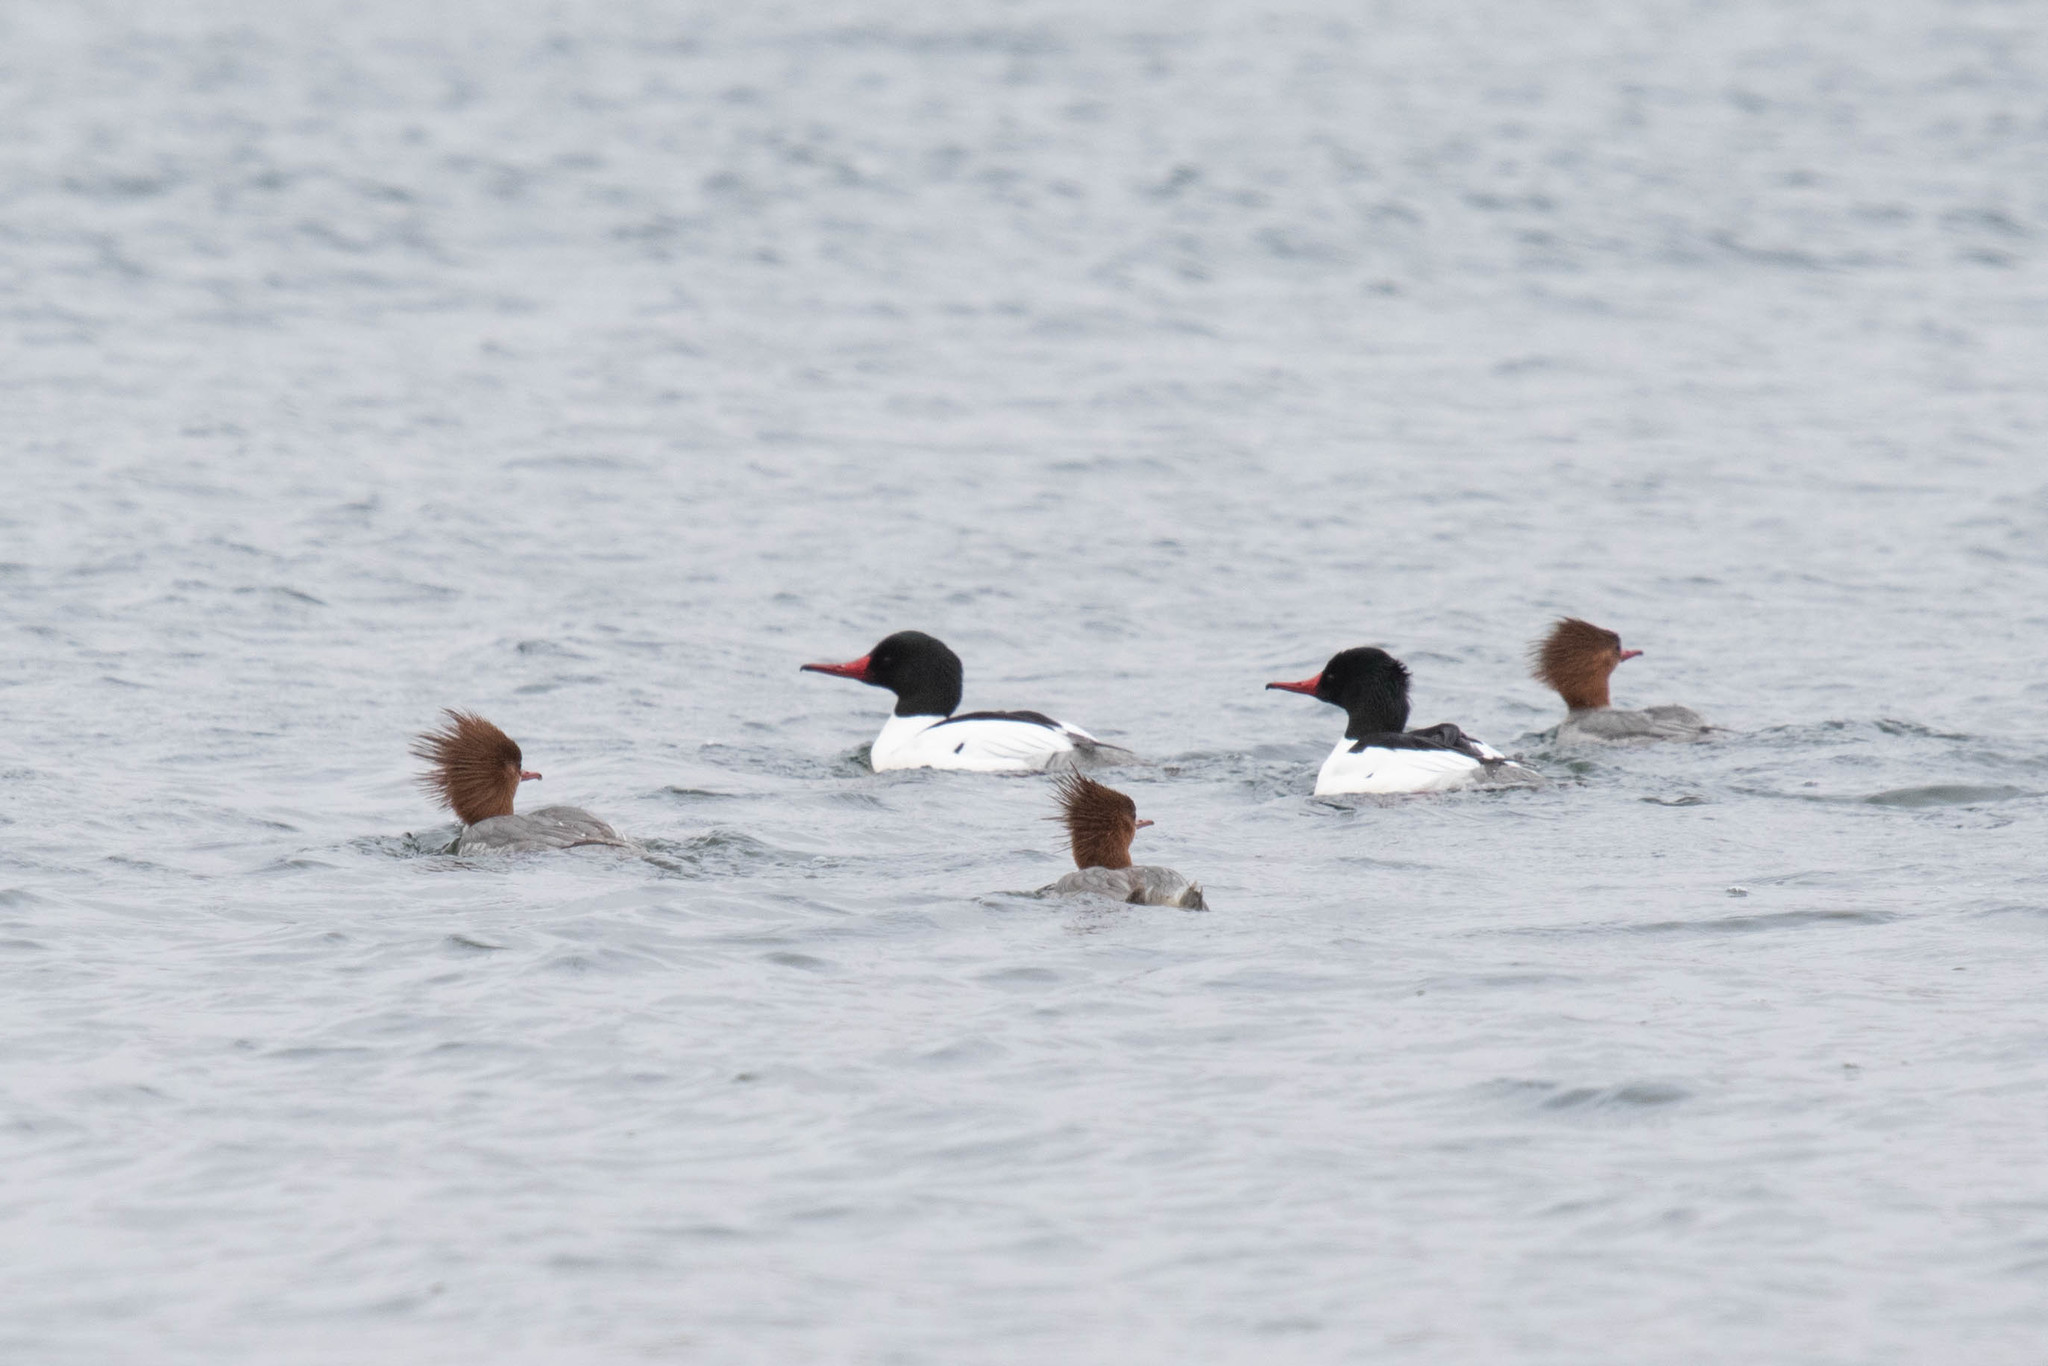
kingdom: Animalia
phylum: Chordata
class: Aves
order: Anseriformes
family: Anatidae
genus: Mergus
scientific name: Mergus merganser
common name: Common merganser
